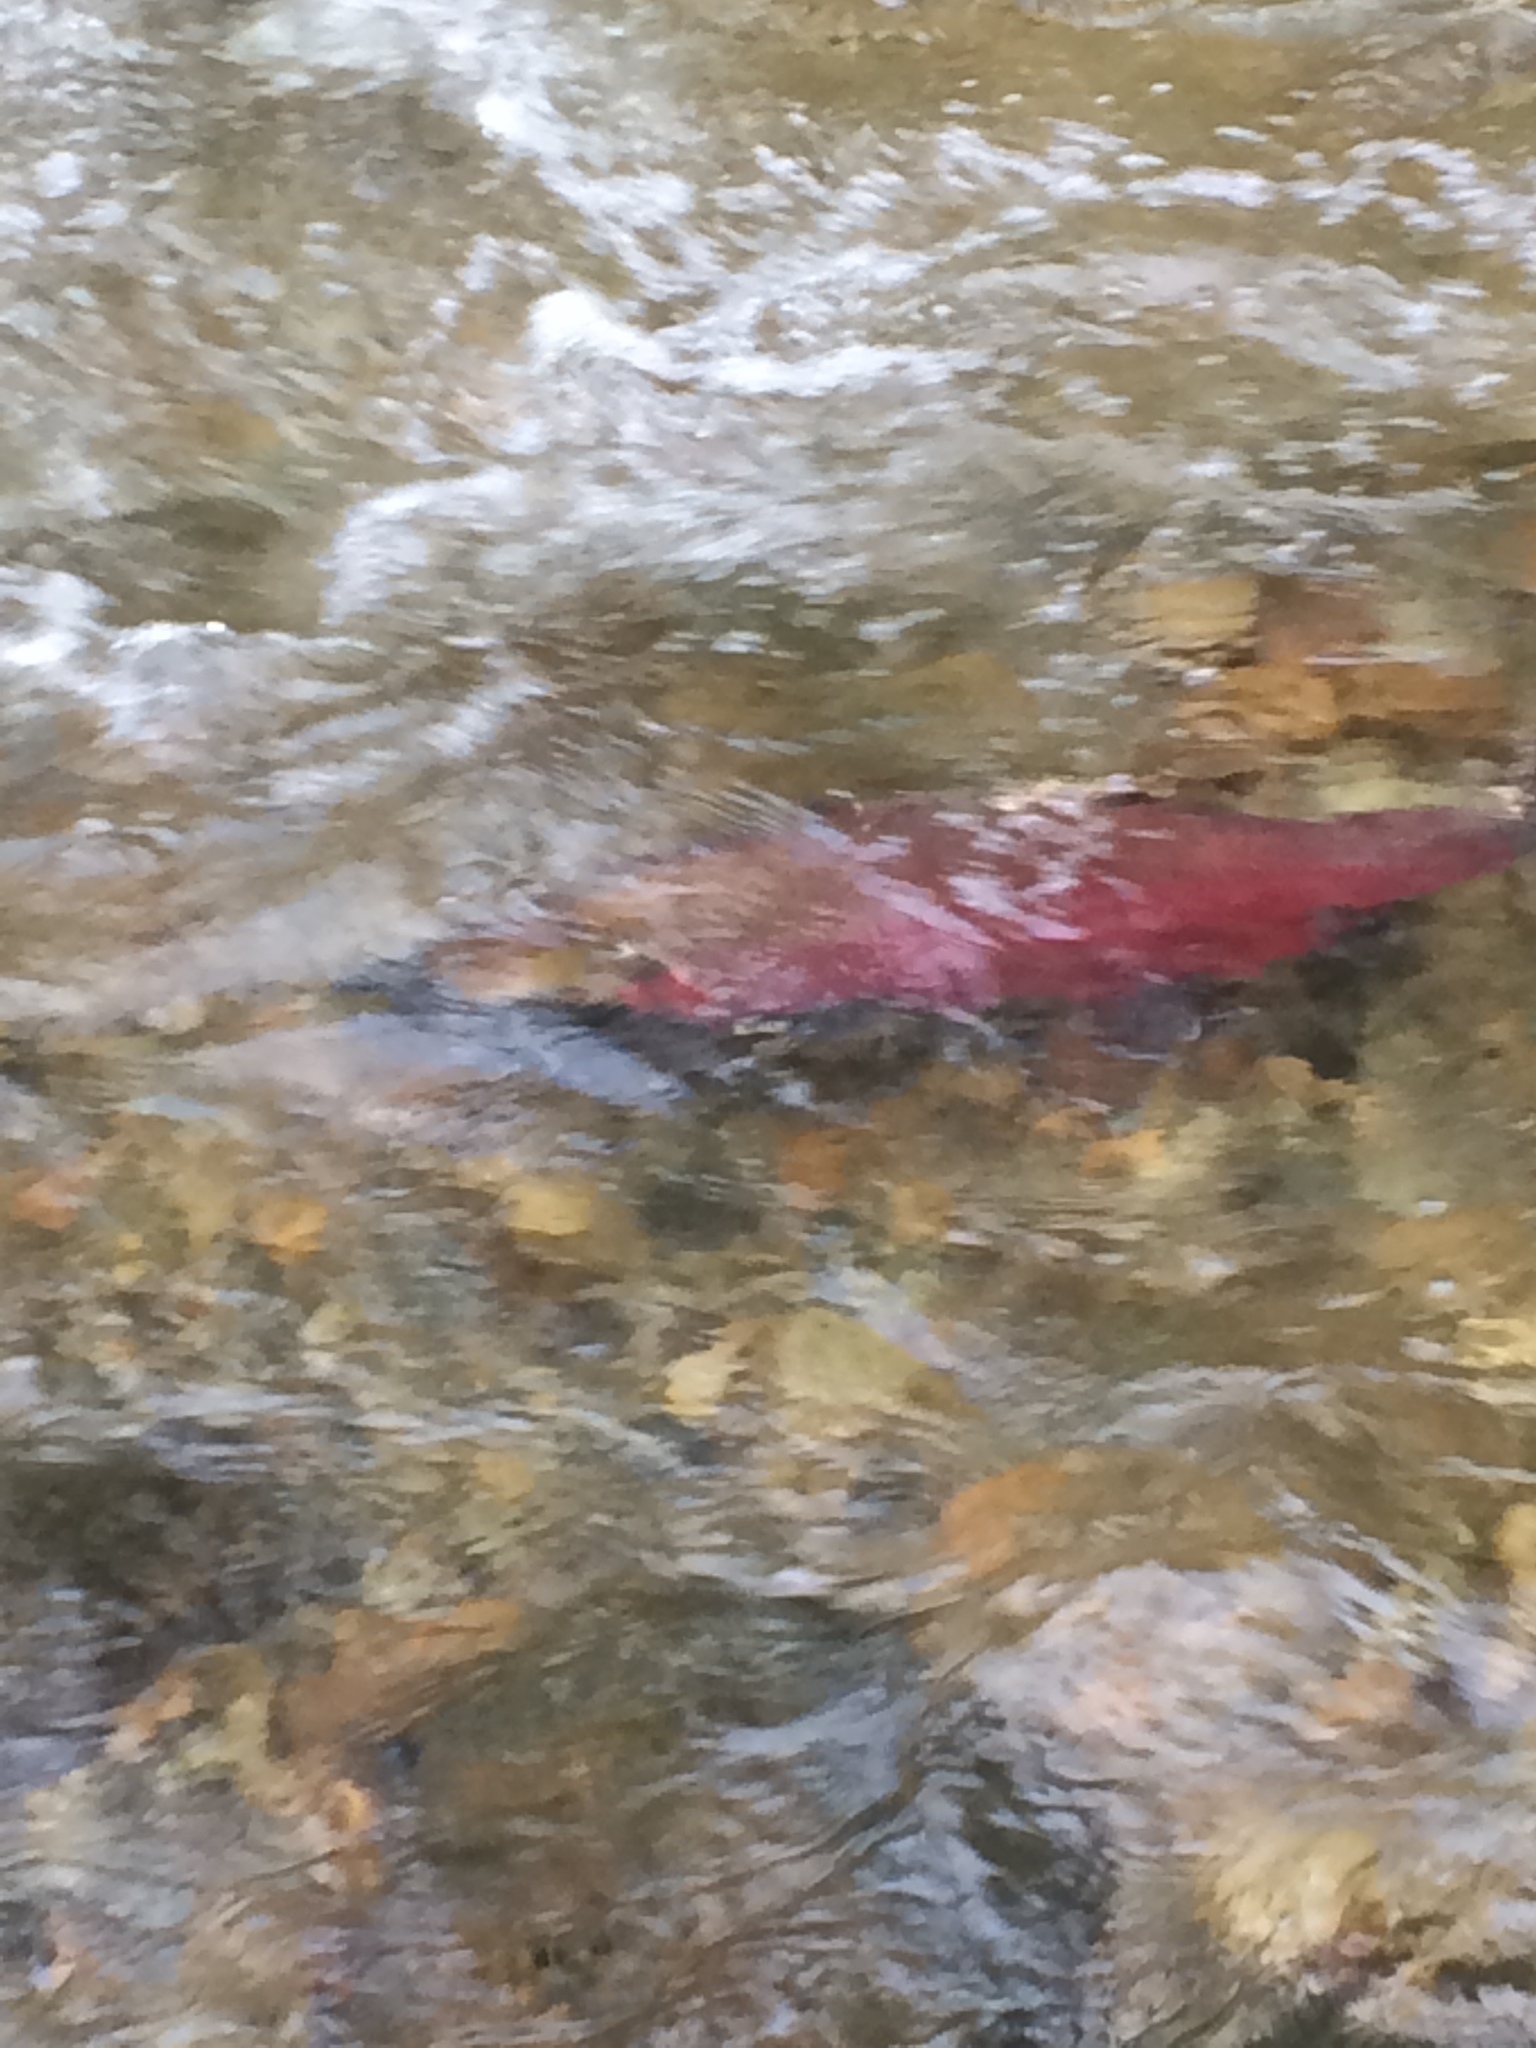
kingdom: Animalia
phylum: Chordata
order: Salmoniformes
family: Salmonidae
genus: Oncorhynchus
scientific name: Oncorhynchus kisutch
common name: Coho salmon
